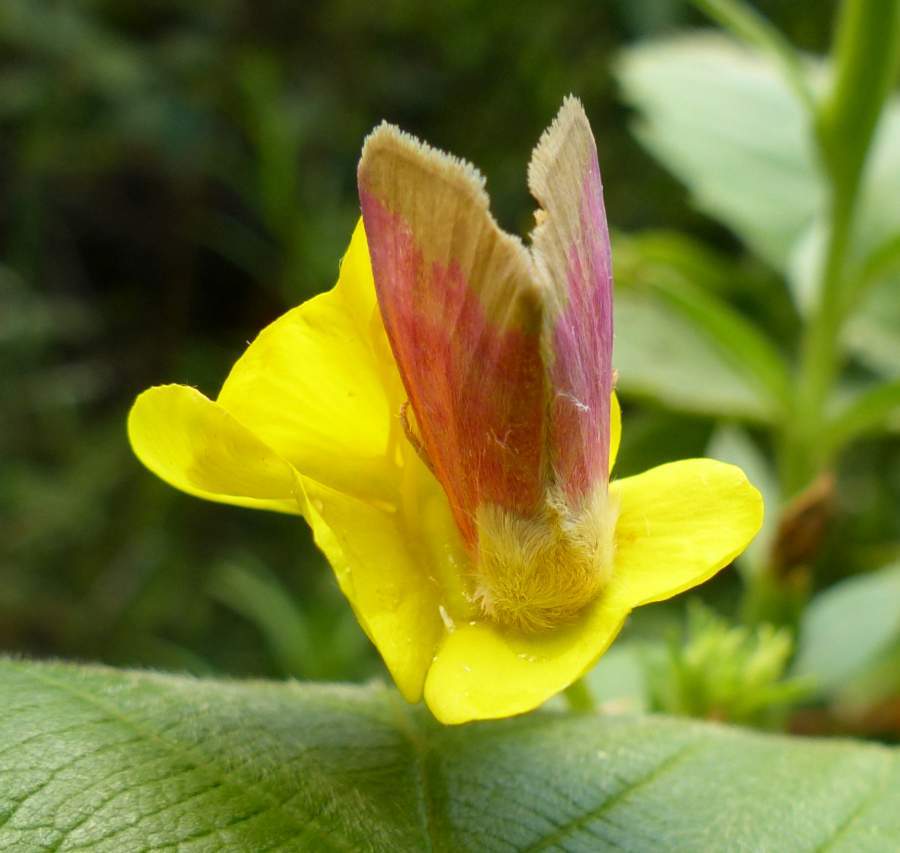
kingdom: Animalia
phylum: Arthropoda
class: Insecta
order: Lepidoptera
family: Noctuidae
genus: Schinia
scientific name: Schinia florida
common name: Primrose moth
